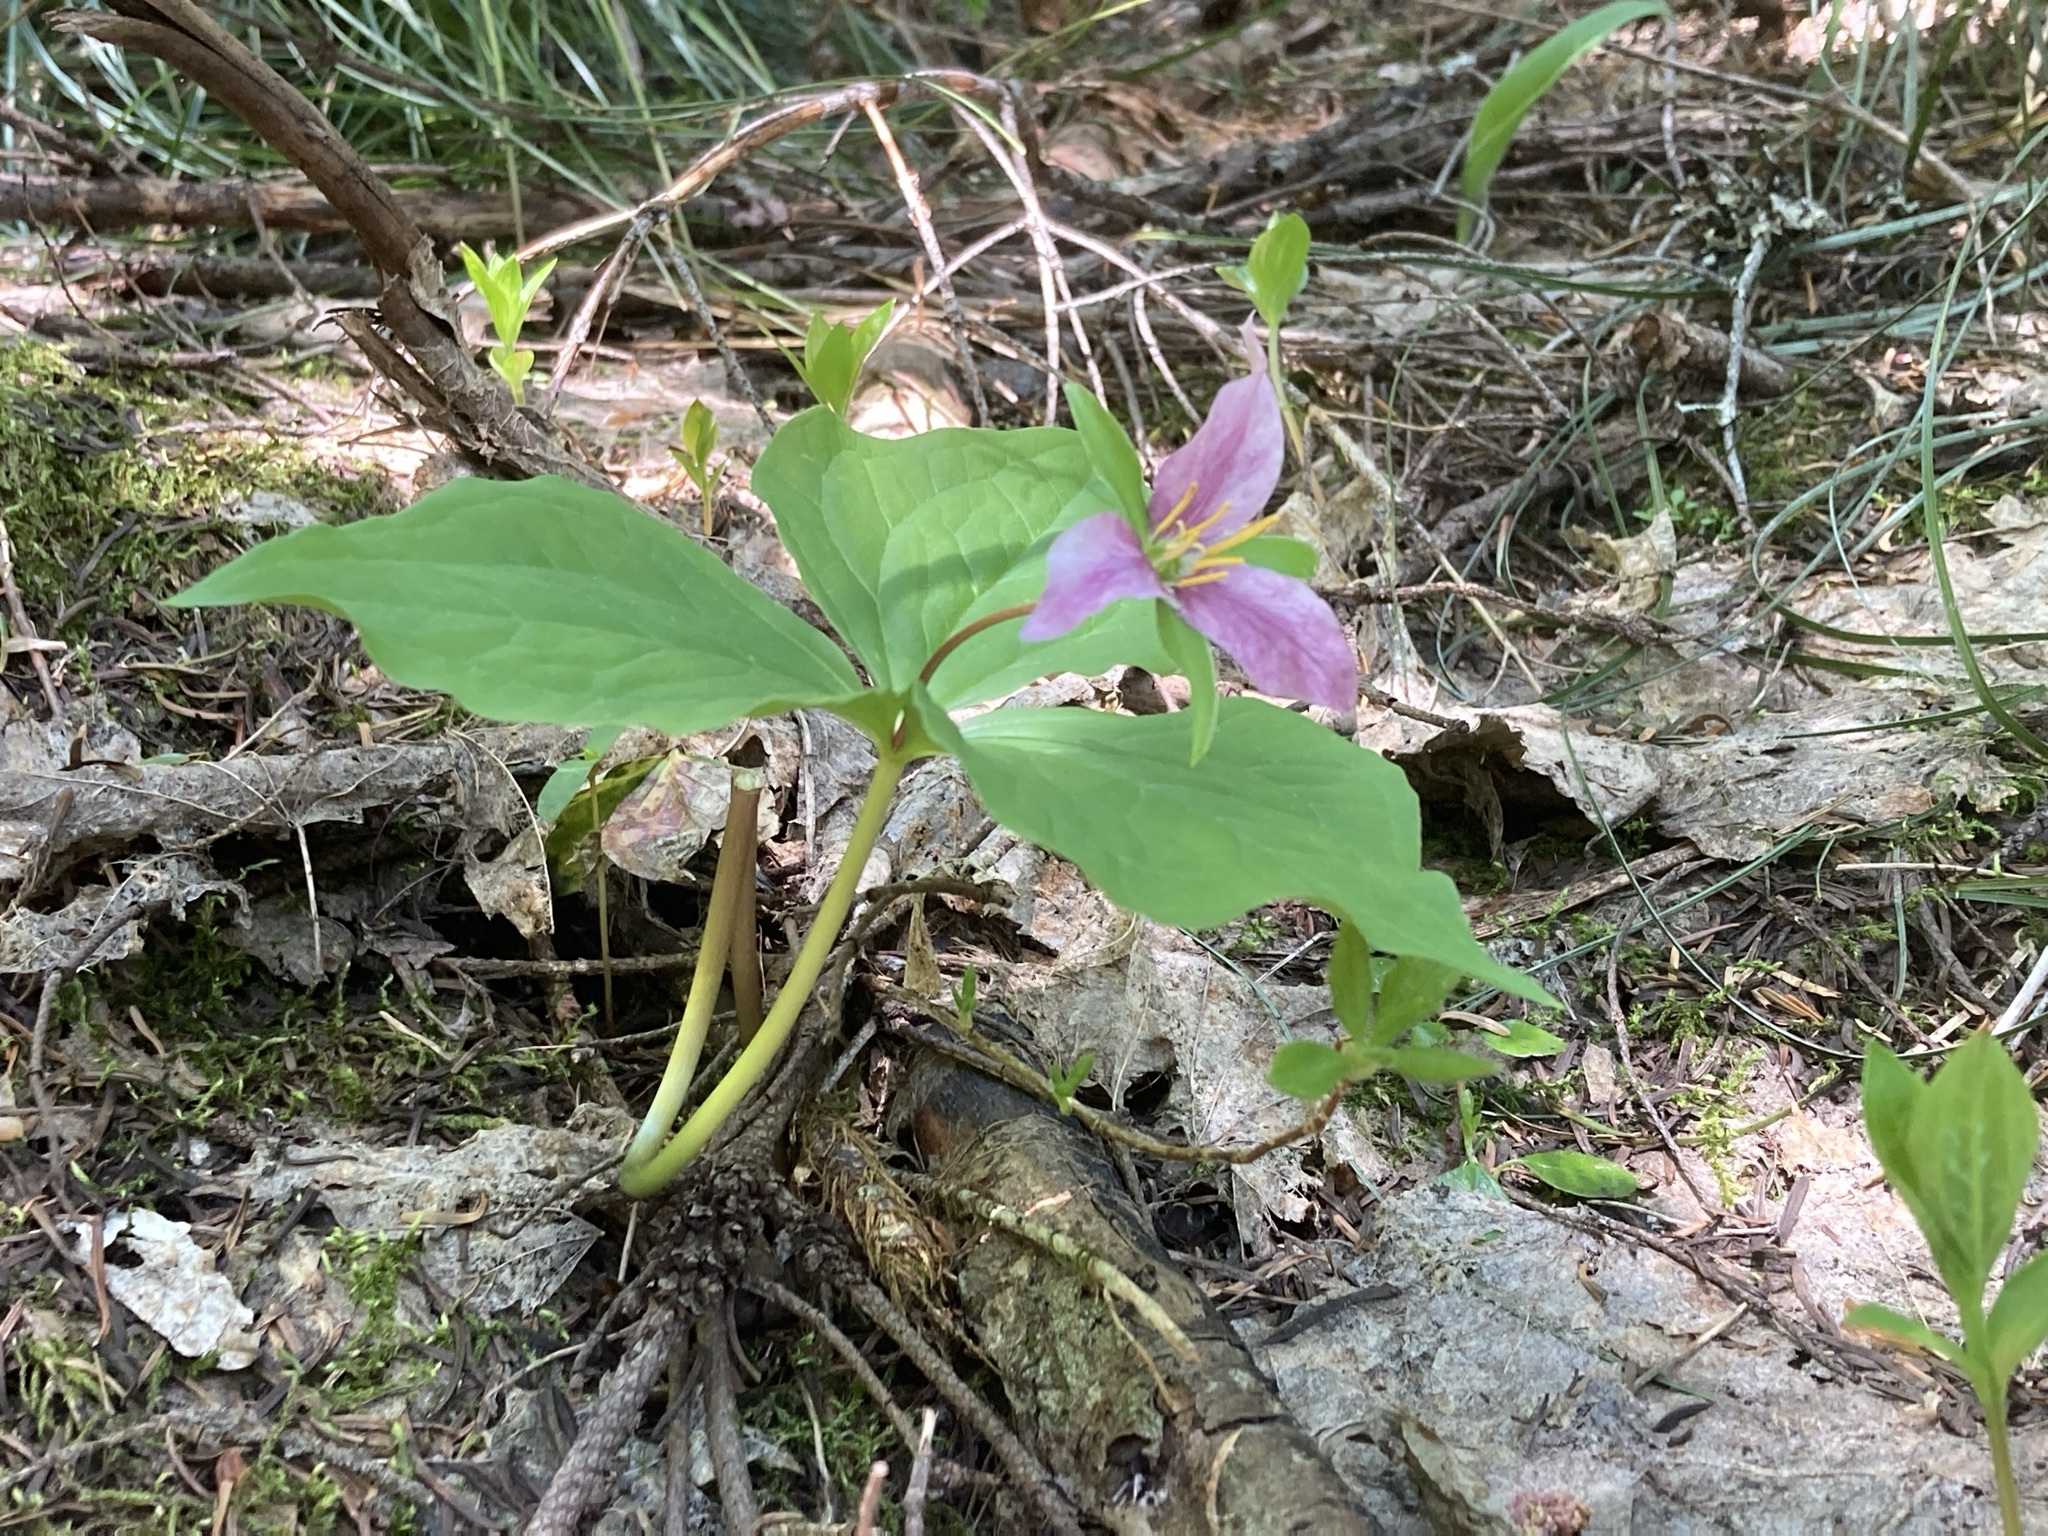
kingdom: Plantae
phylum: Tracheophyta
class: Liliopsida
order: Liliales
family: Melanthiaceae
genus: Trillium
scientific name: Trillium ovatum
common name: Pacific trillium
